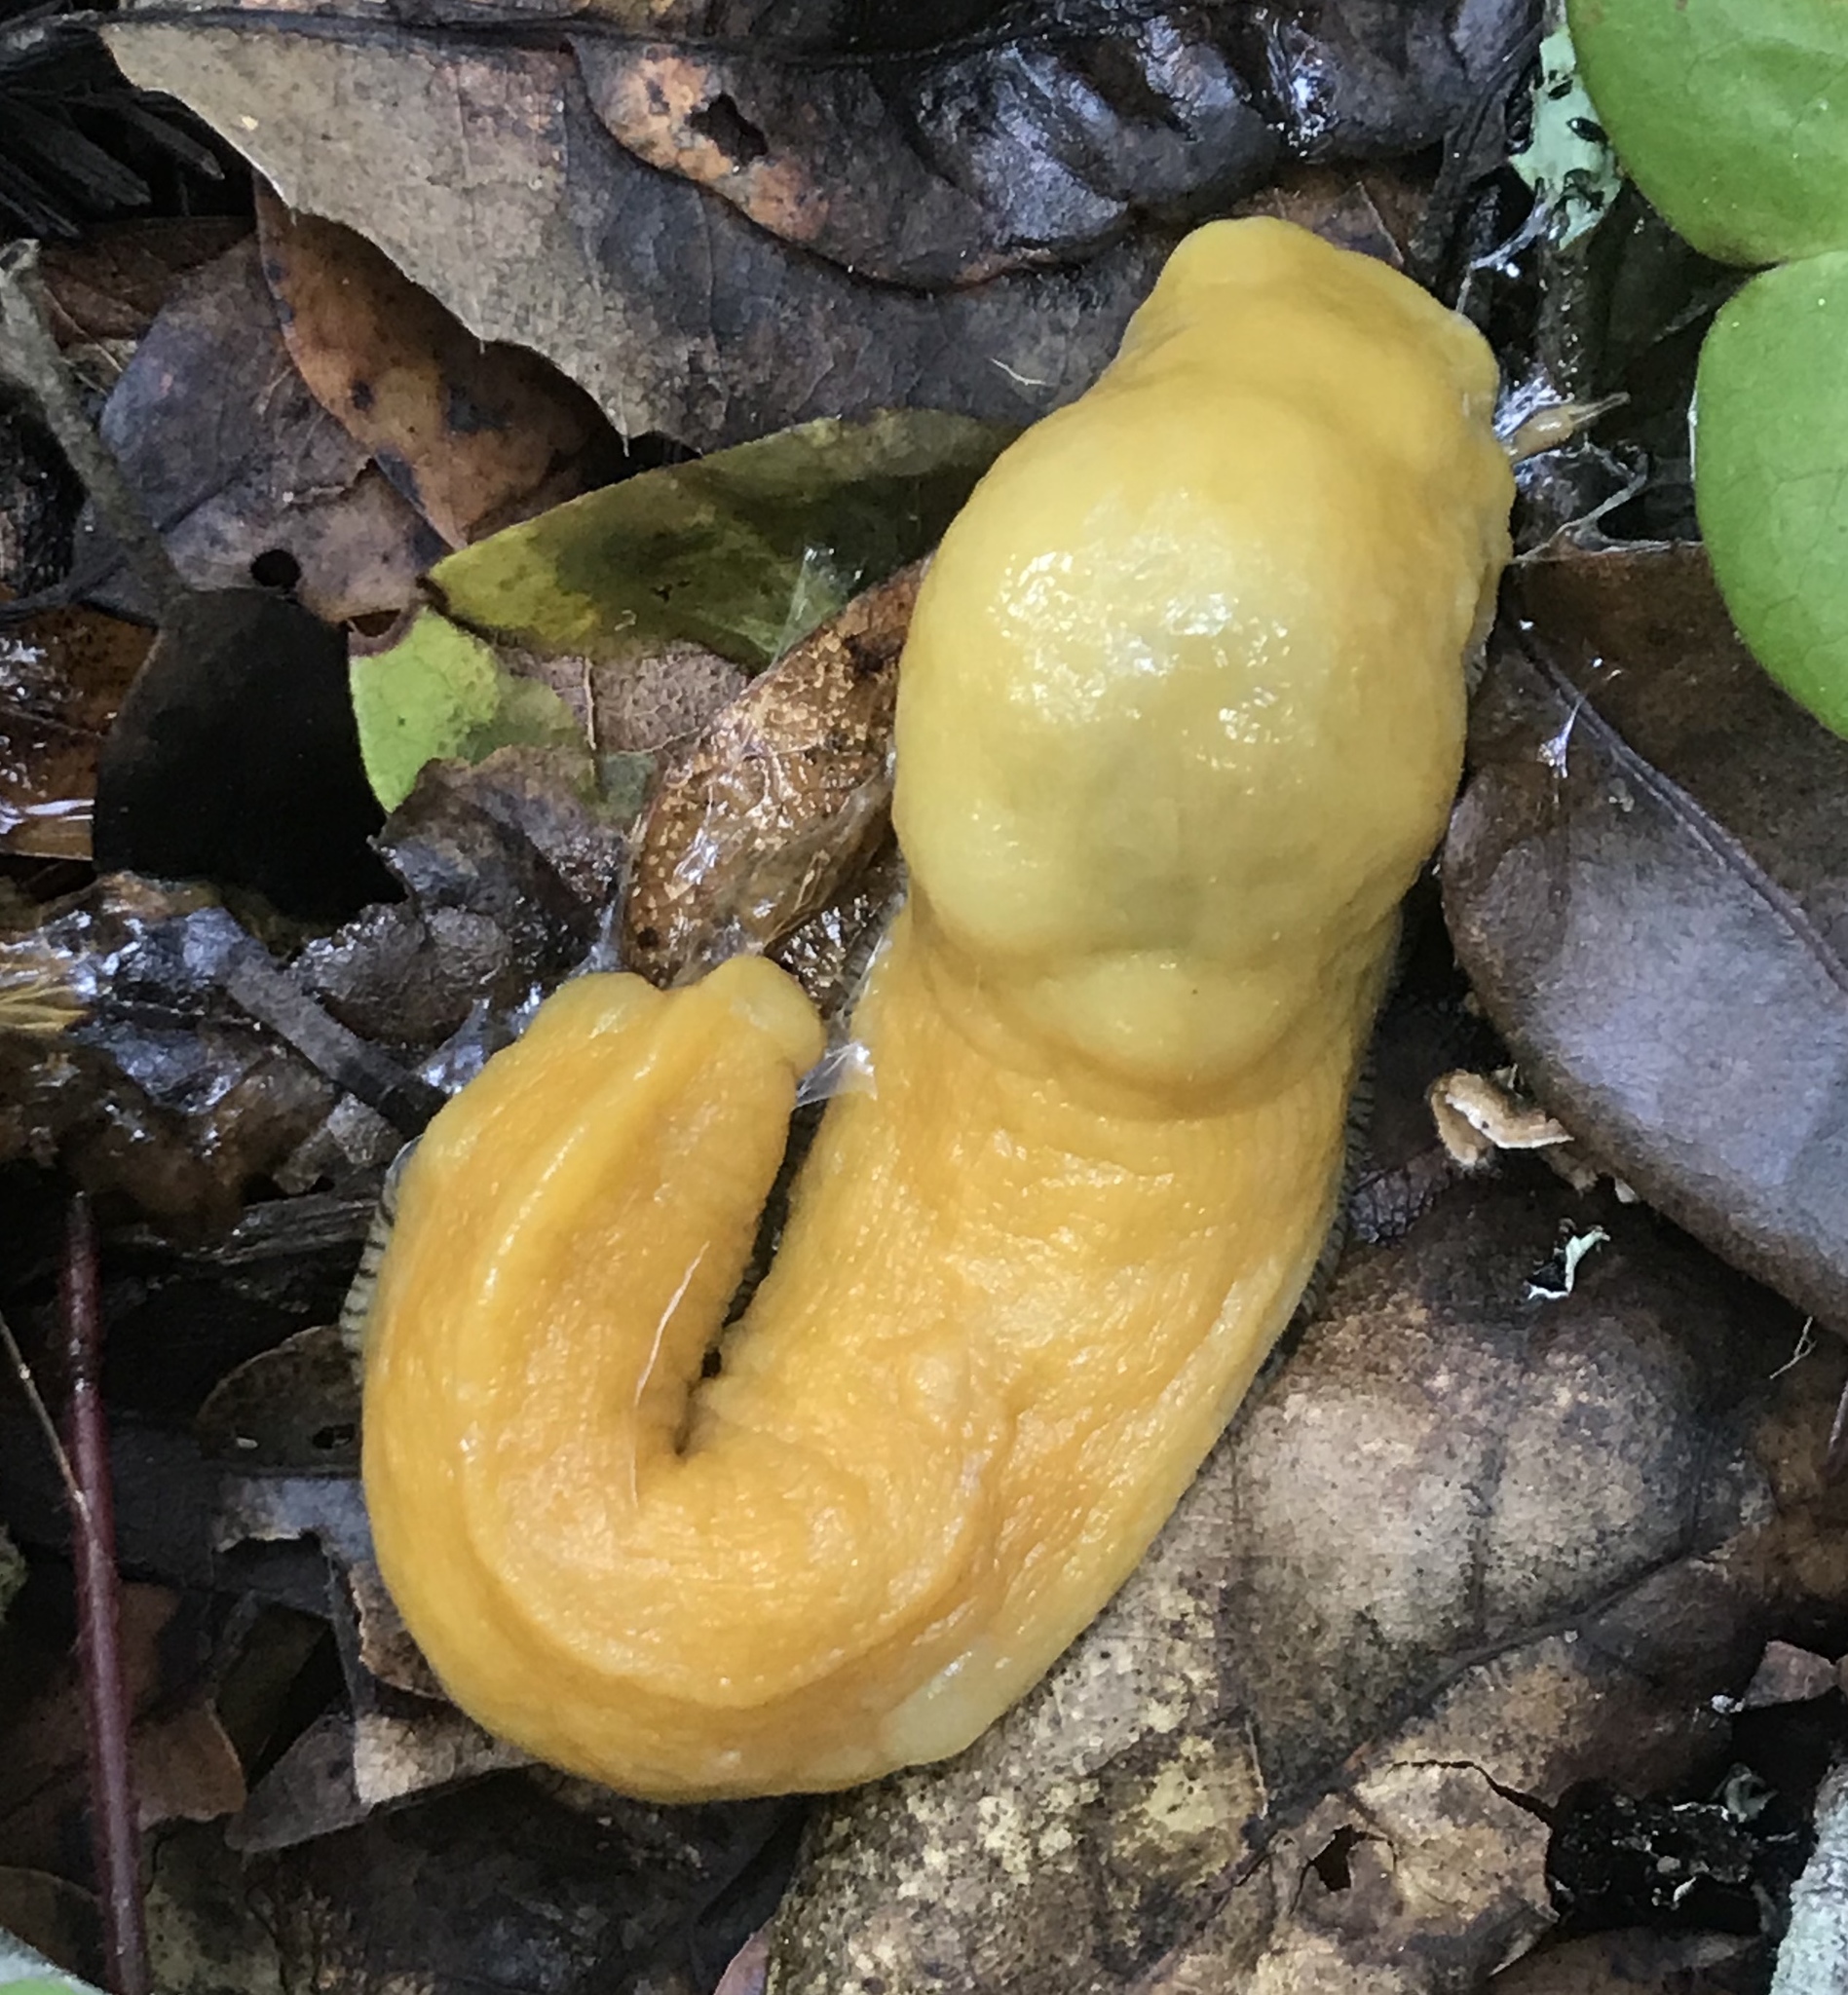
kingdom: Animalia
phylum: Mollusca
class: Gastropoda
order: Stylommatophora
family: Ariolimacidae
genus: Ariolimax
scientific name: Ariolimax dolichophallus
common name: Slender banana slug
